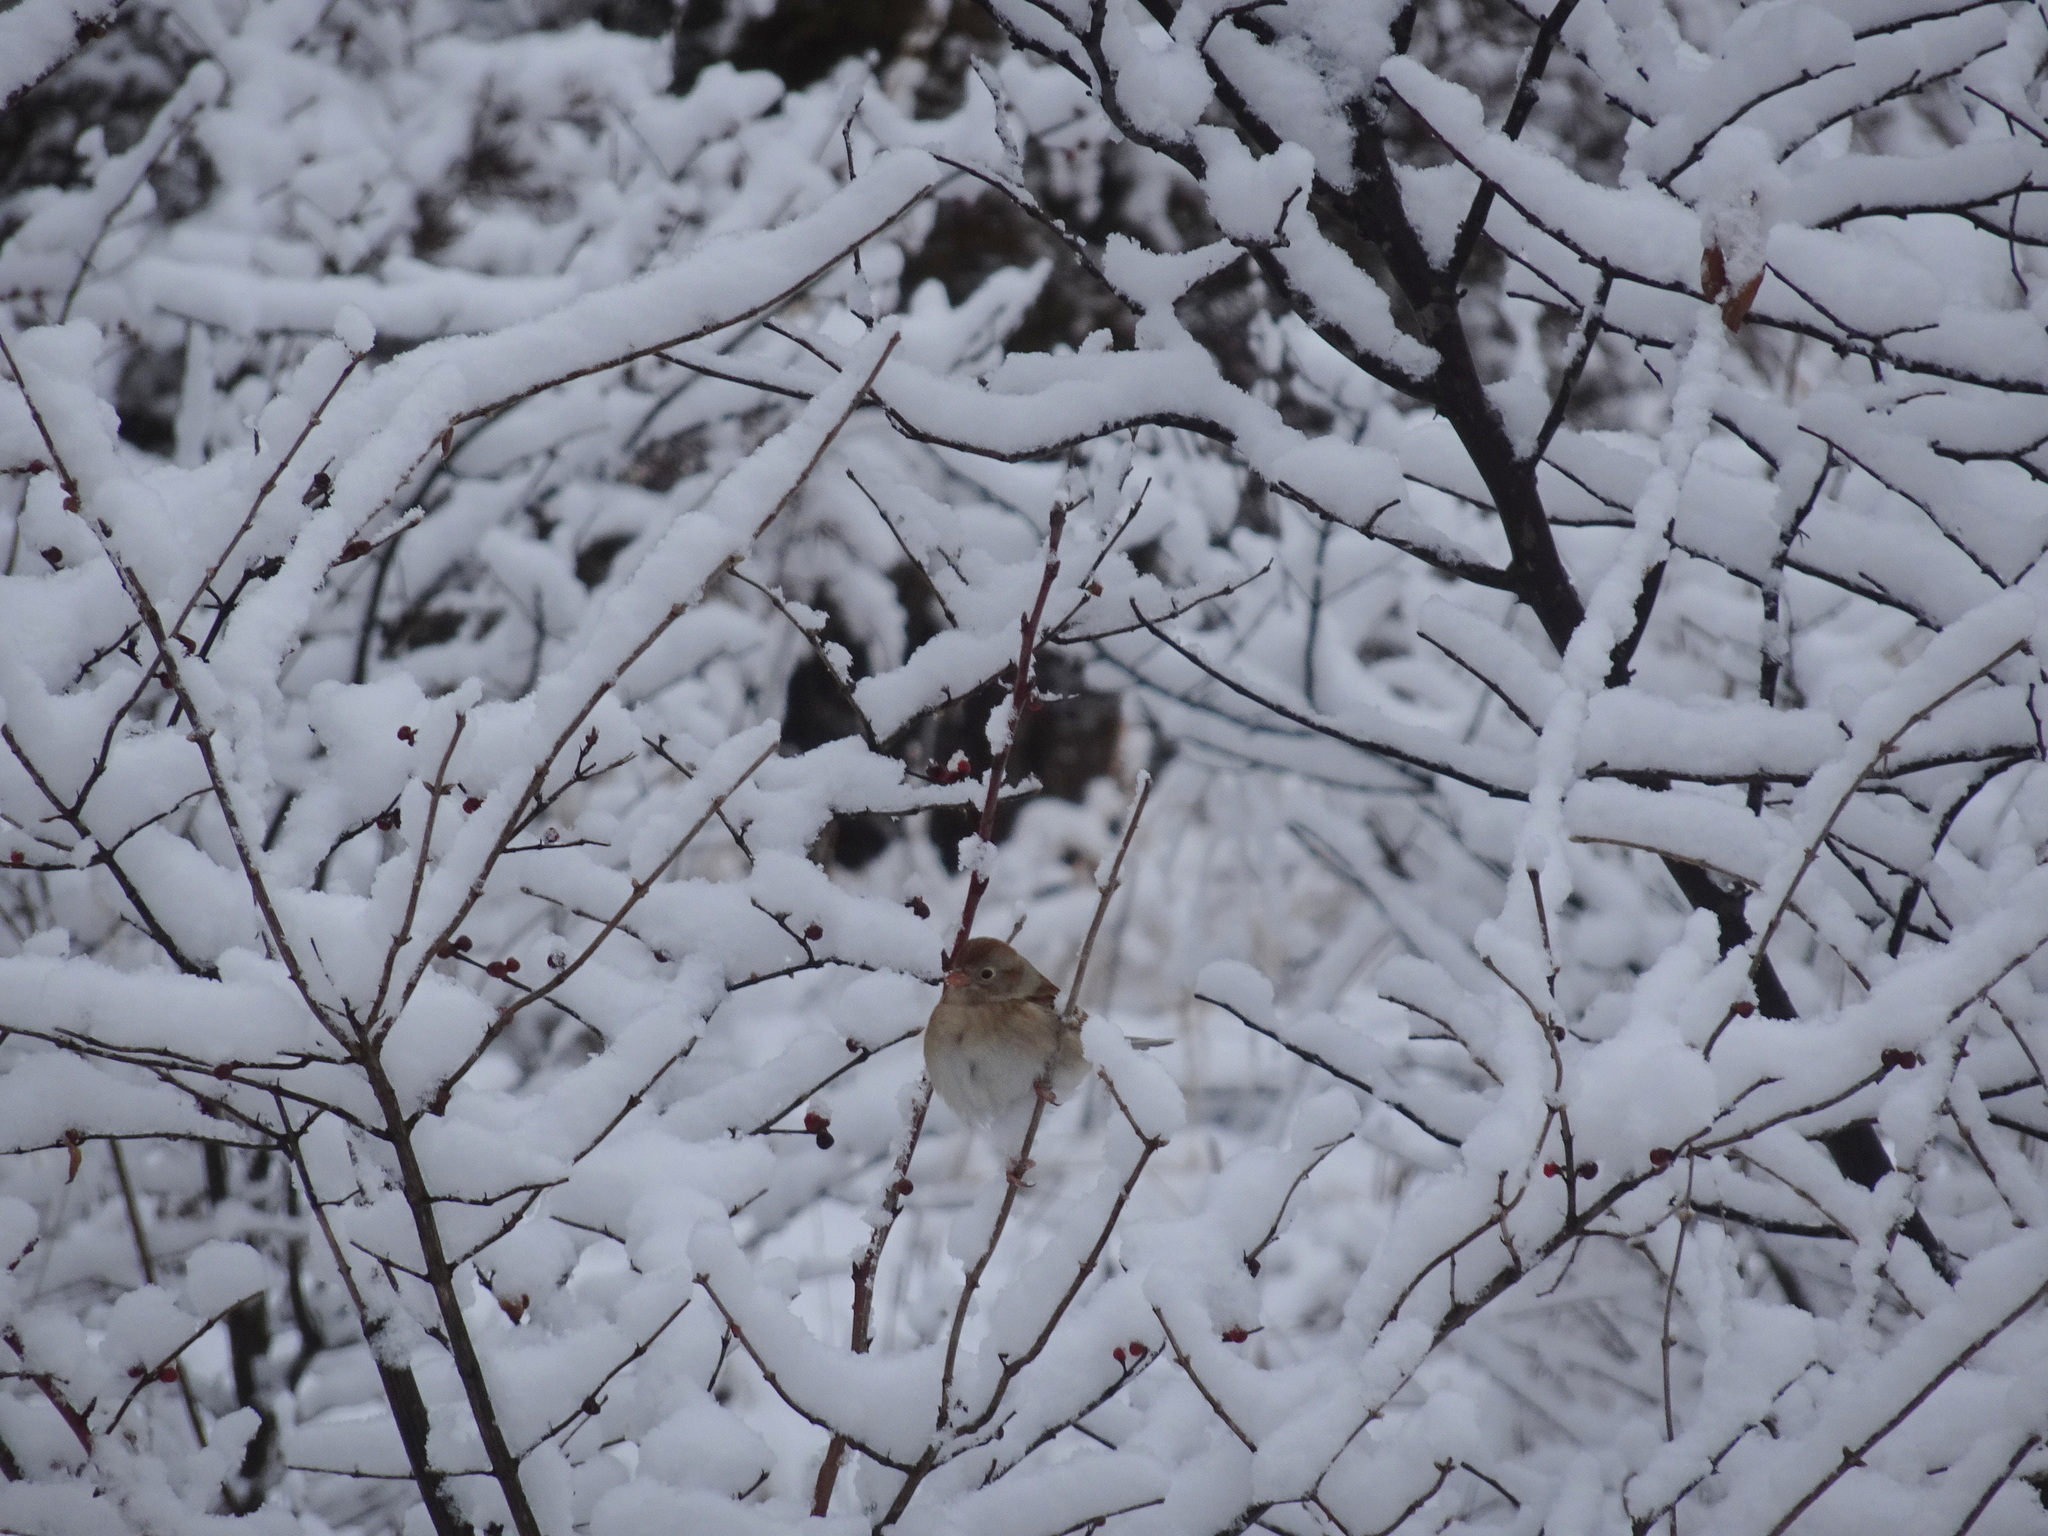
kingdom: Animalia
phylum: Chordata
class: Aves
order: Passeriformes
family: Passerellidae
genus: Spizella
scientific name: Spizella pusilla
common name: Field sparrow
